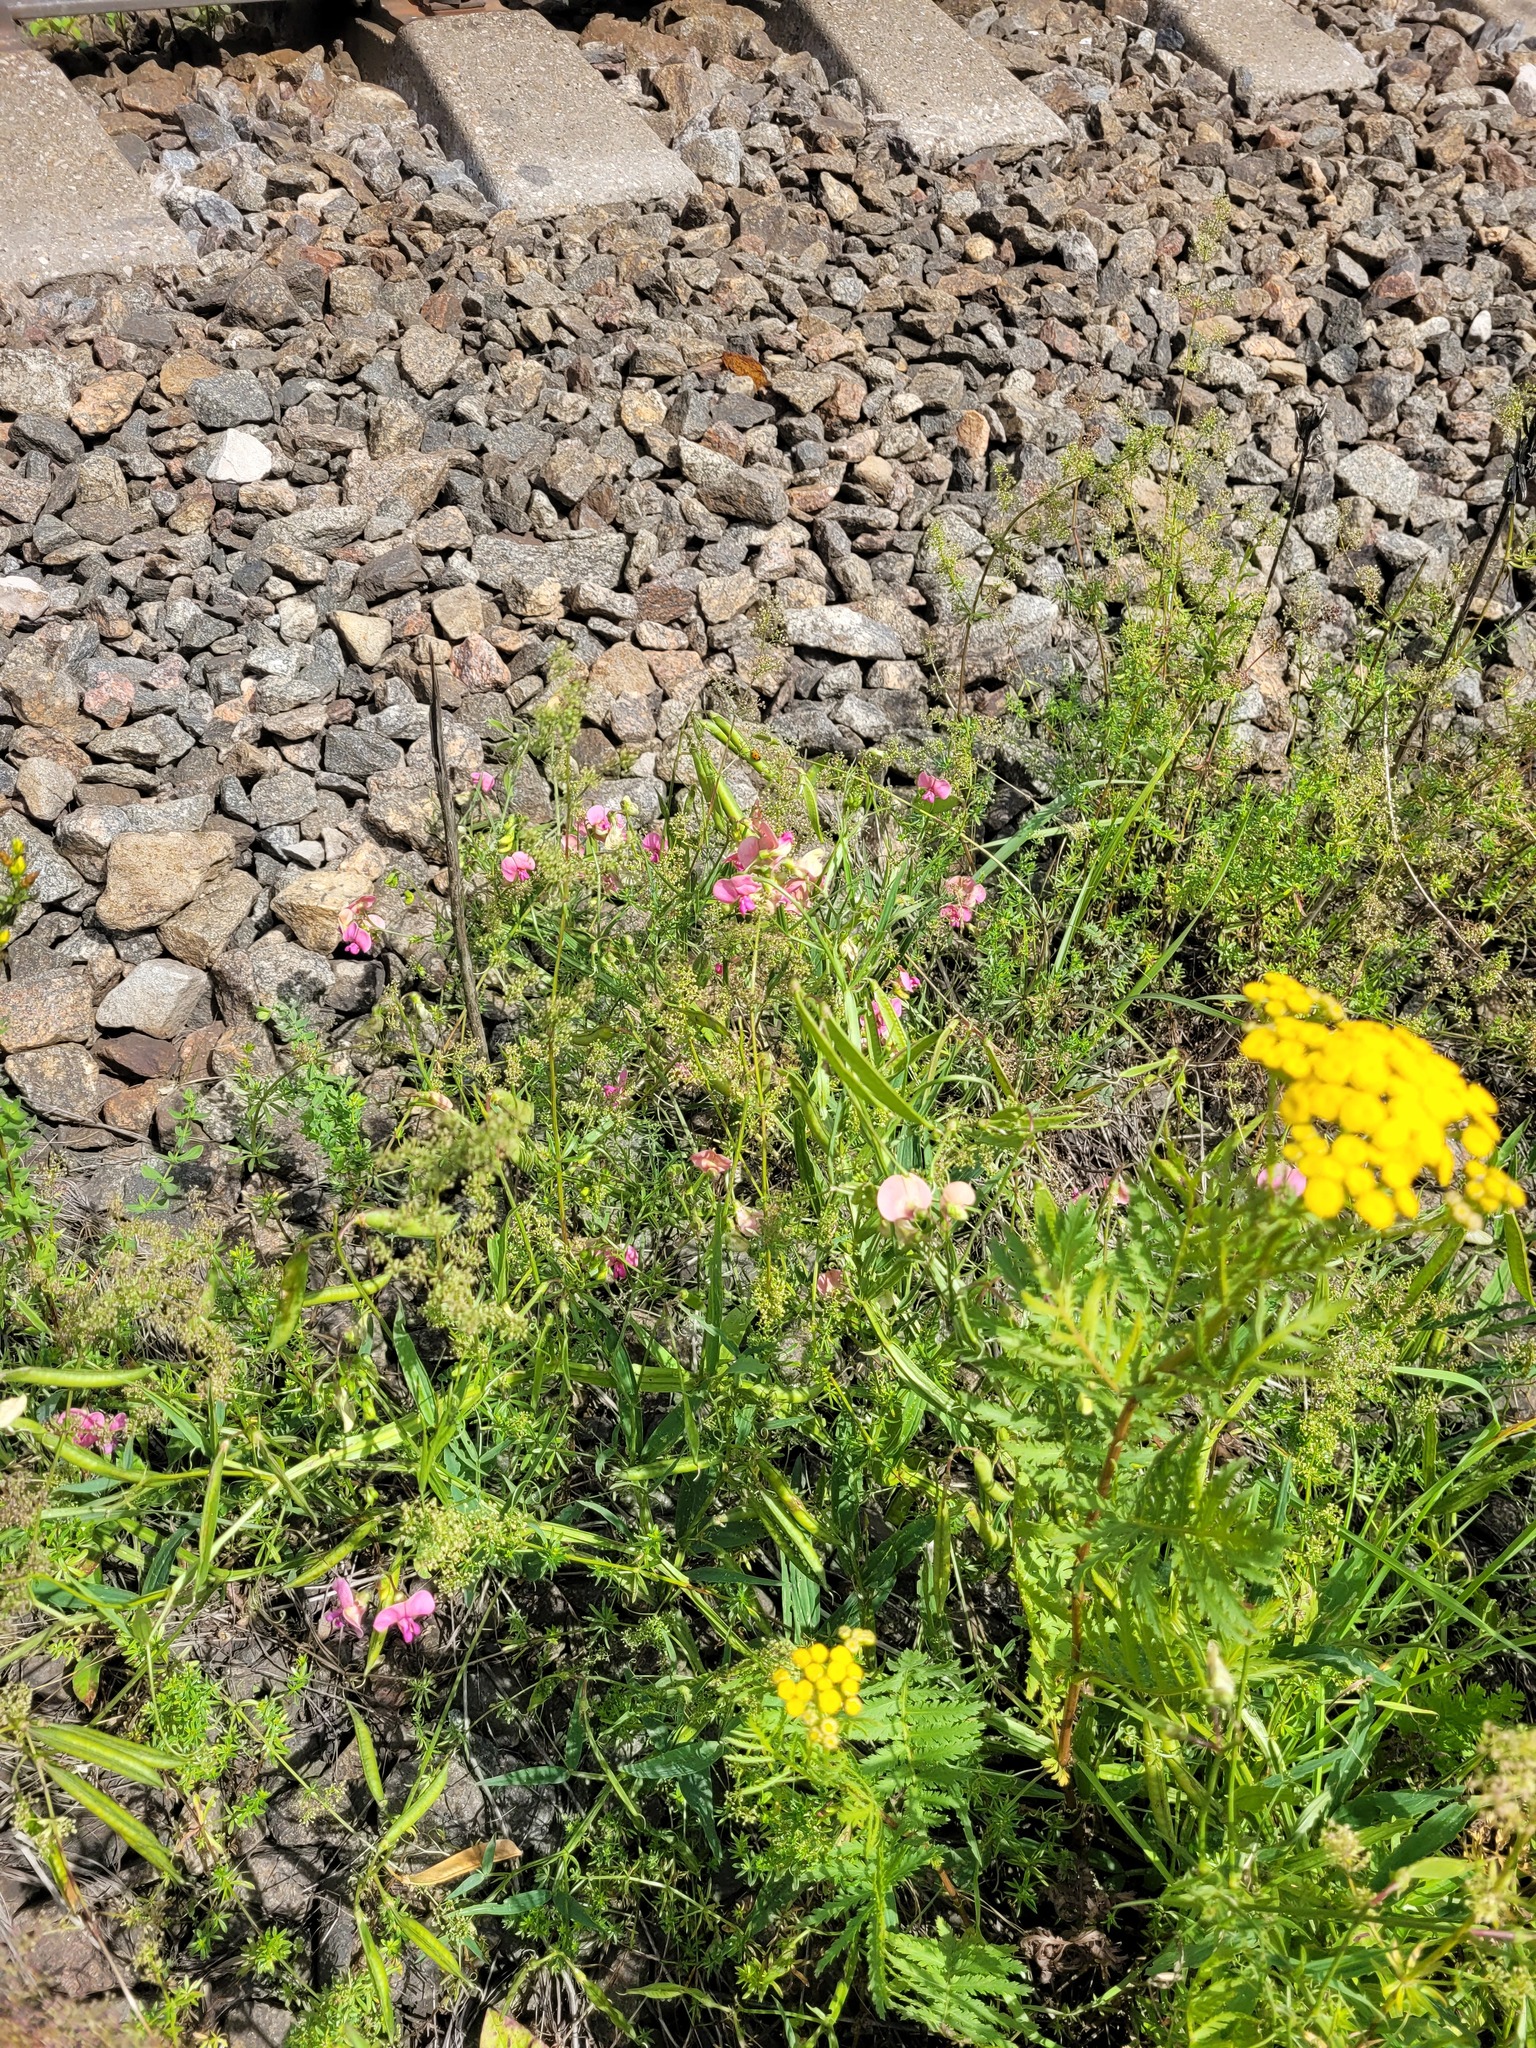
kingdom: Plantae
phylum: Tracheophyta
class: Magnoliopsida
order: Fabales
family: Fabaceae
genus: Lathyrus
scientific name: Lathyrus sylvestris
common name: Flat pea
